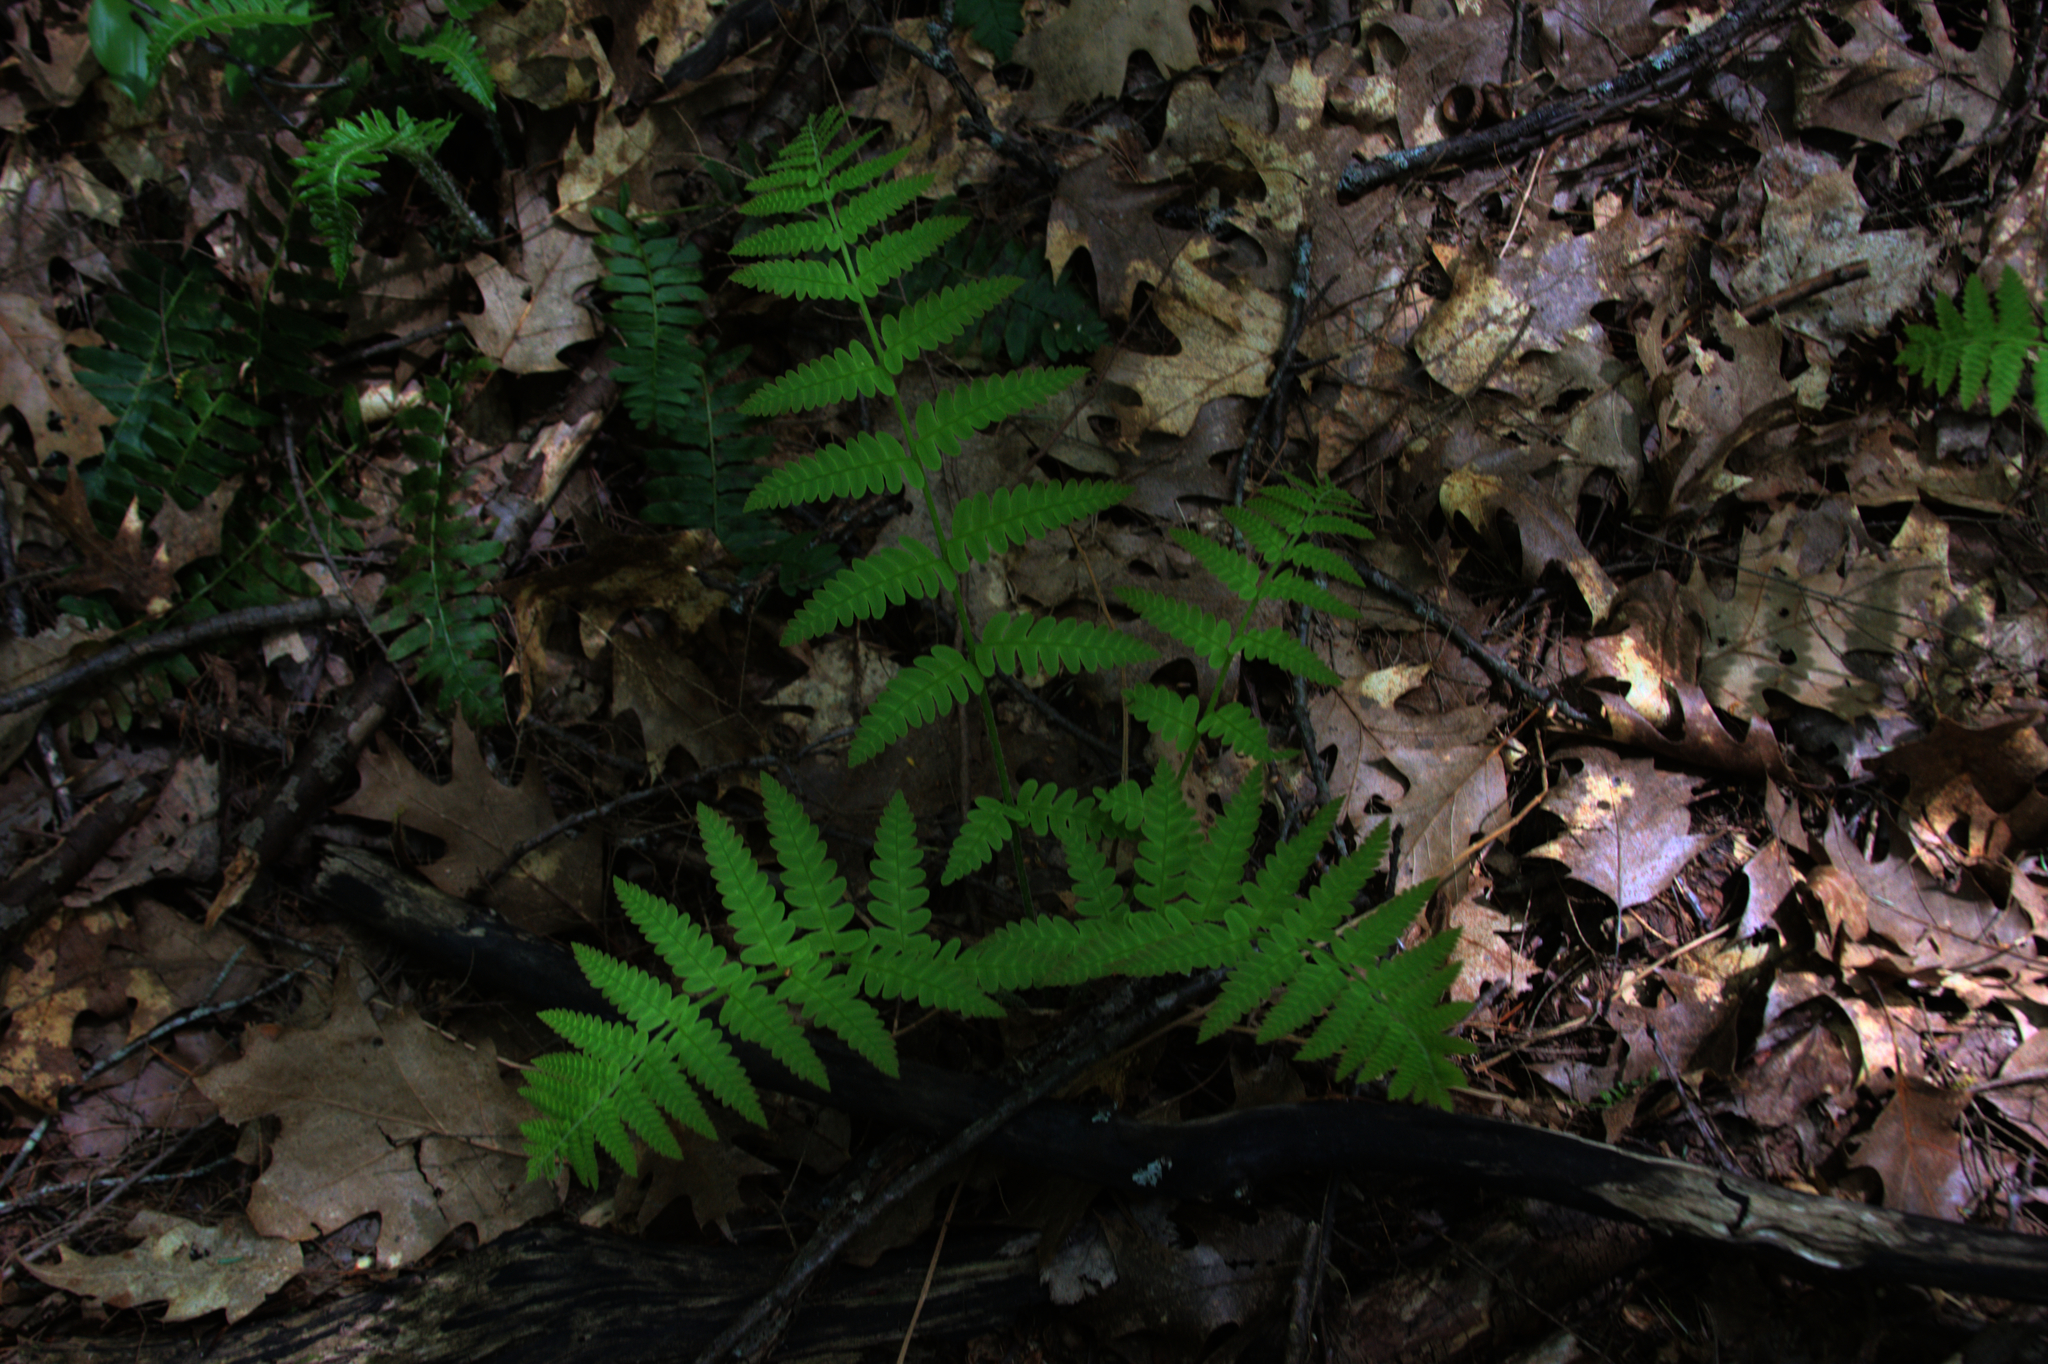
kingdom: Plantae
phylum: Tracheophyta
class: Polypodiopsida
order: Osmundales
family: Osmundaceae
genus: Claytosmunda
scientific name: Claytosmunda claytoniana
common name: Clayton's fern
